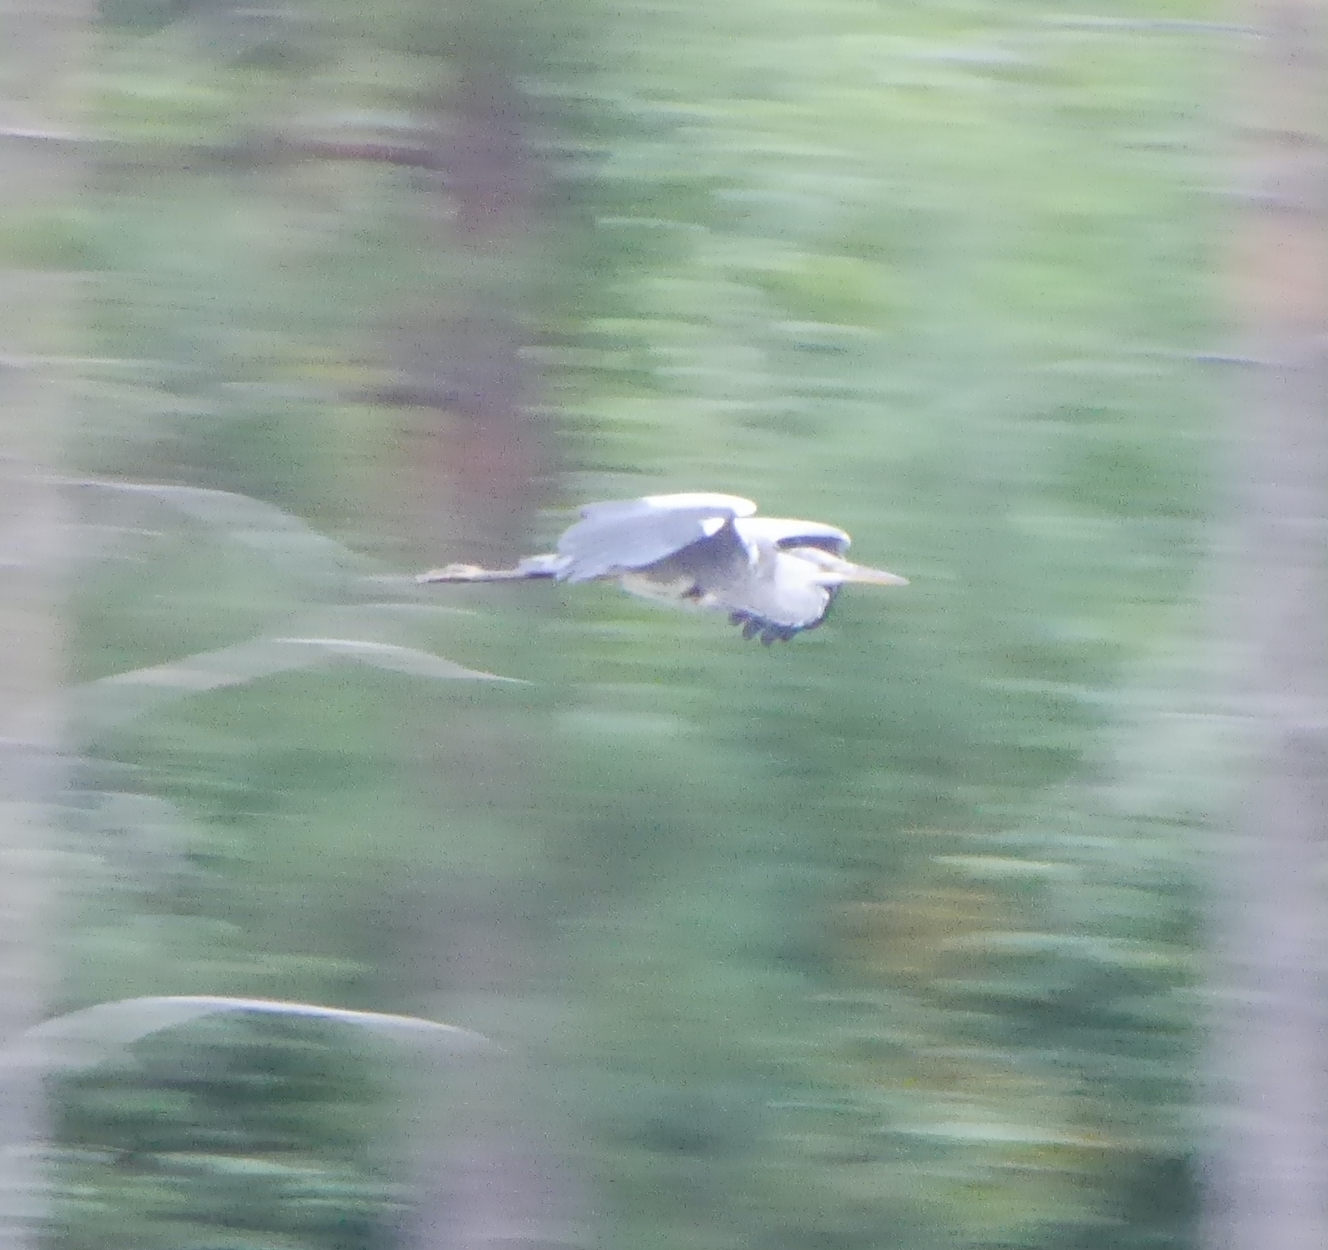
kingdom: Animalia
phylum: Chordata
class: Aves
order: Pelecaniformes
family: Ardeidae
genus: Ardea
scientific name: Ardea cinerea
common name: Grey heron
